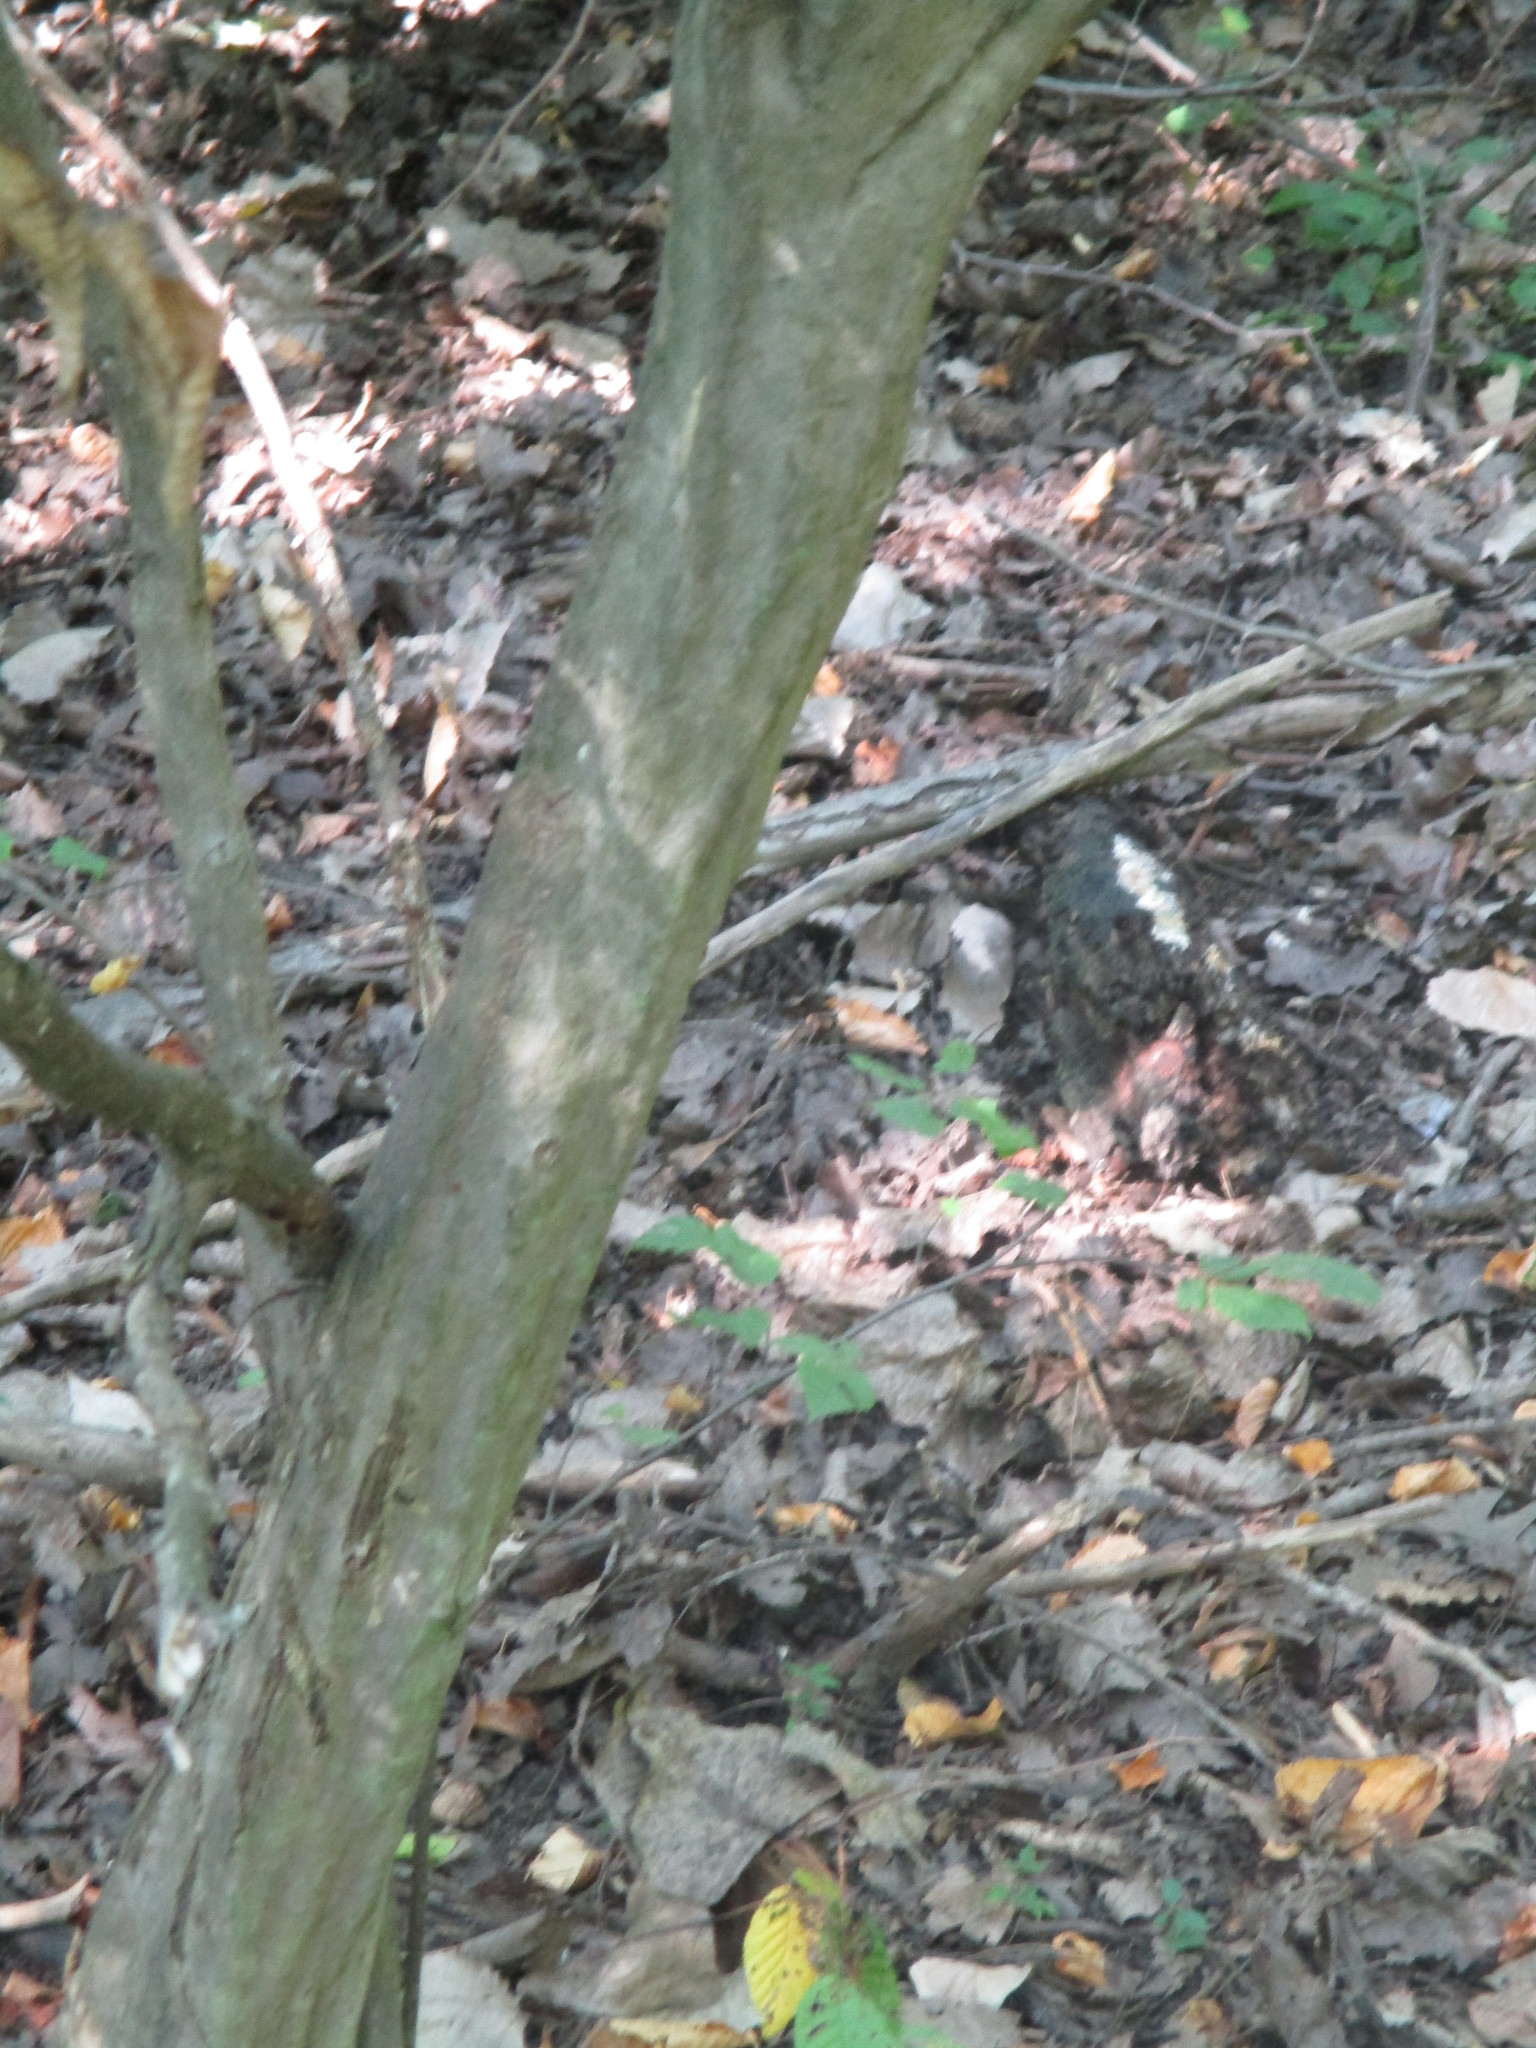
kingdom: Plantae
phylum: Tracheophyta
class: Magnoliopsida
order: Fagales
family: Betulaceae
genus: Carpinus
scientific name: Carpinus caroliniana
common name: American hornbeam
